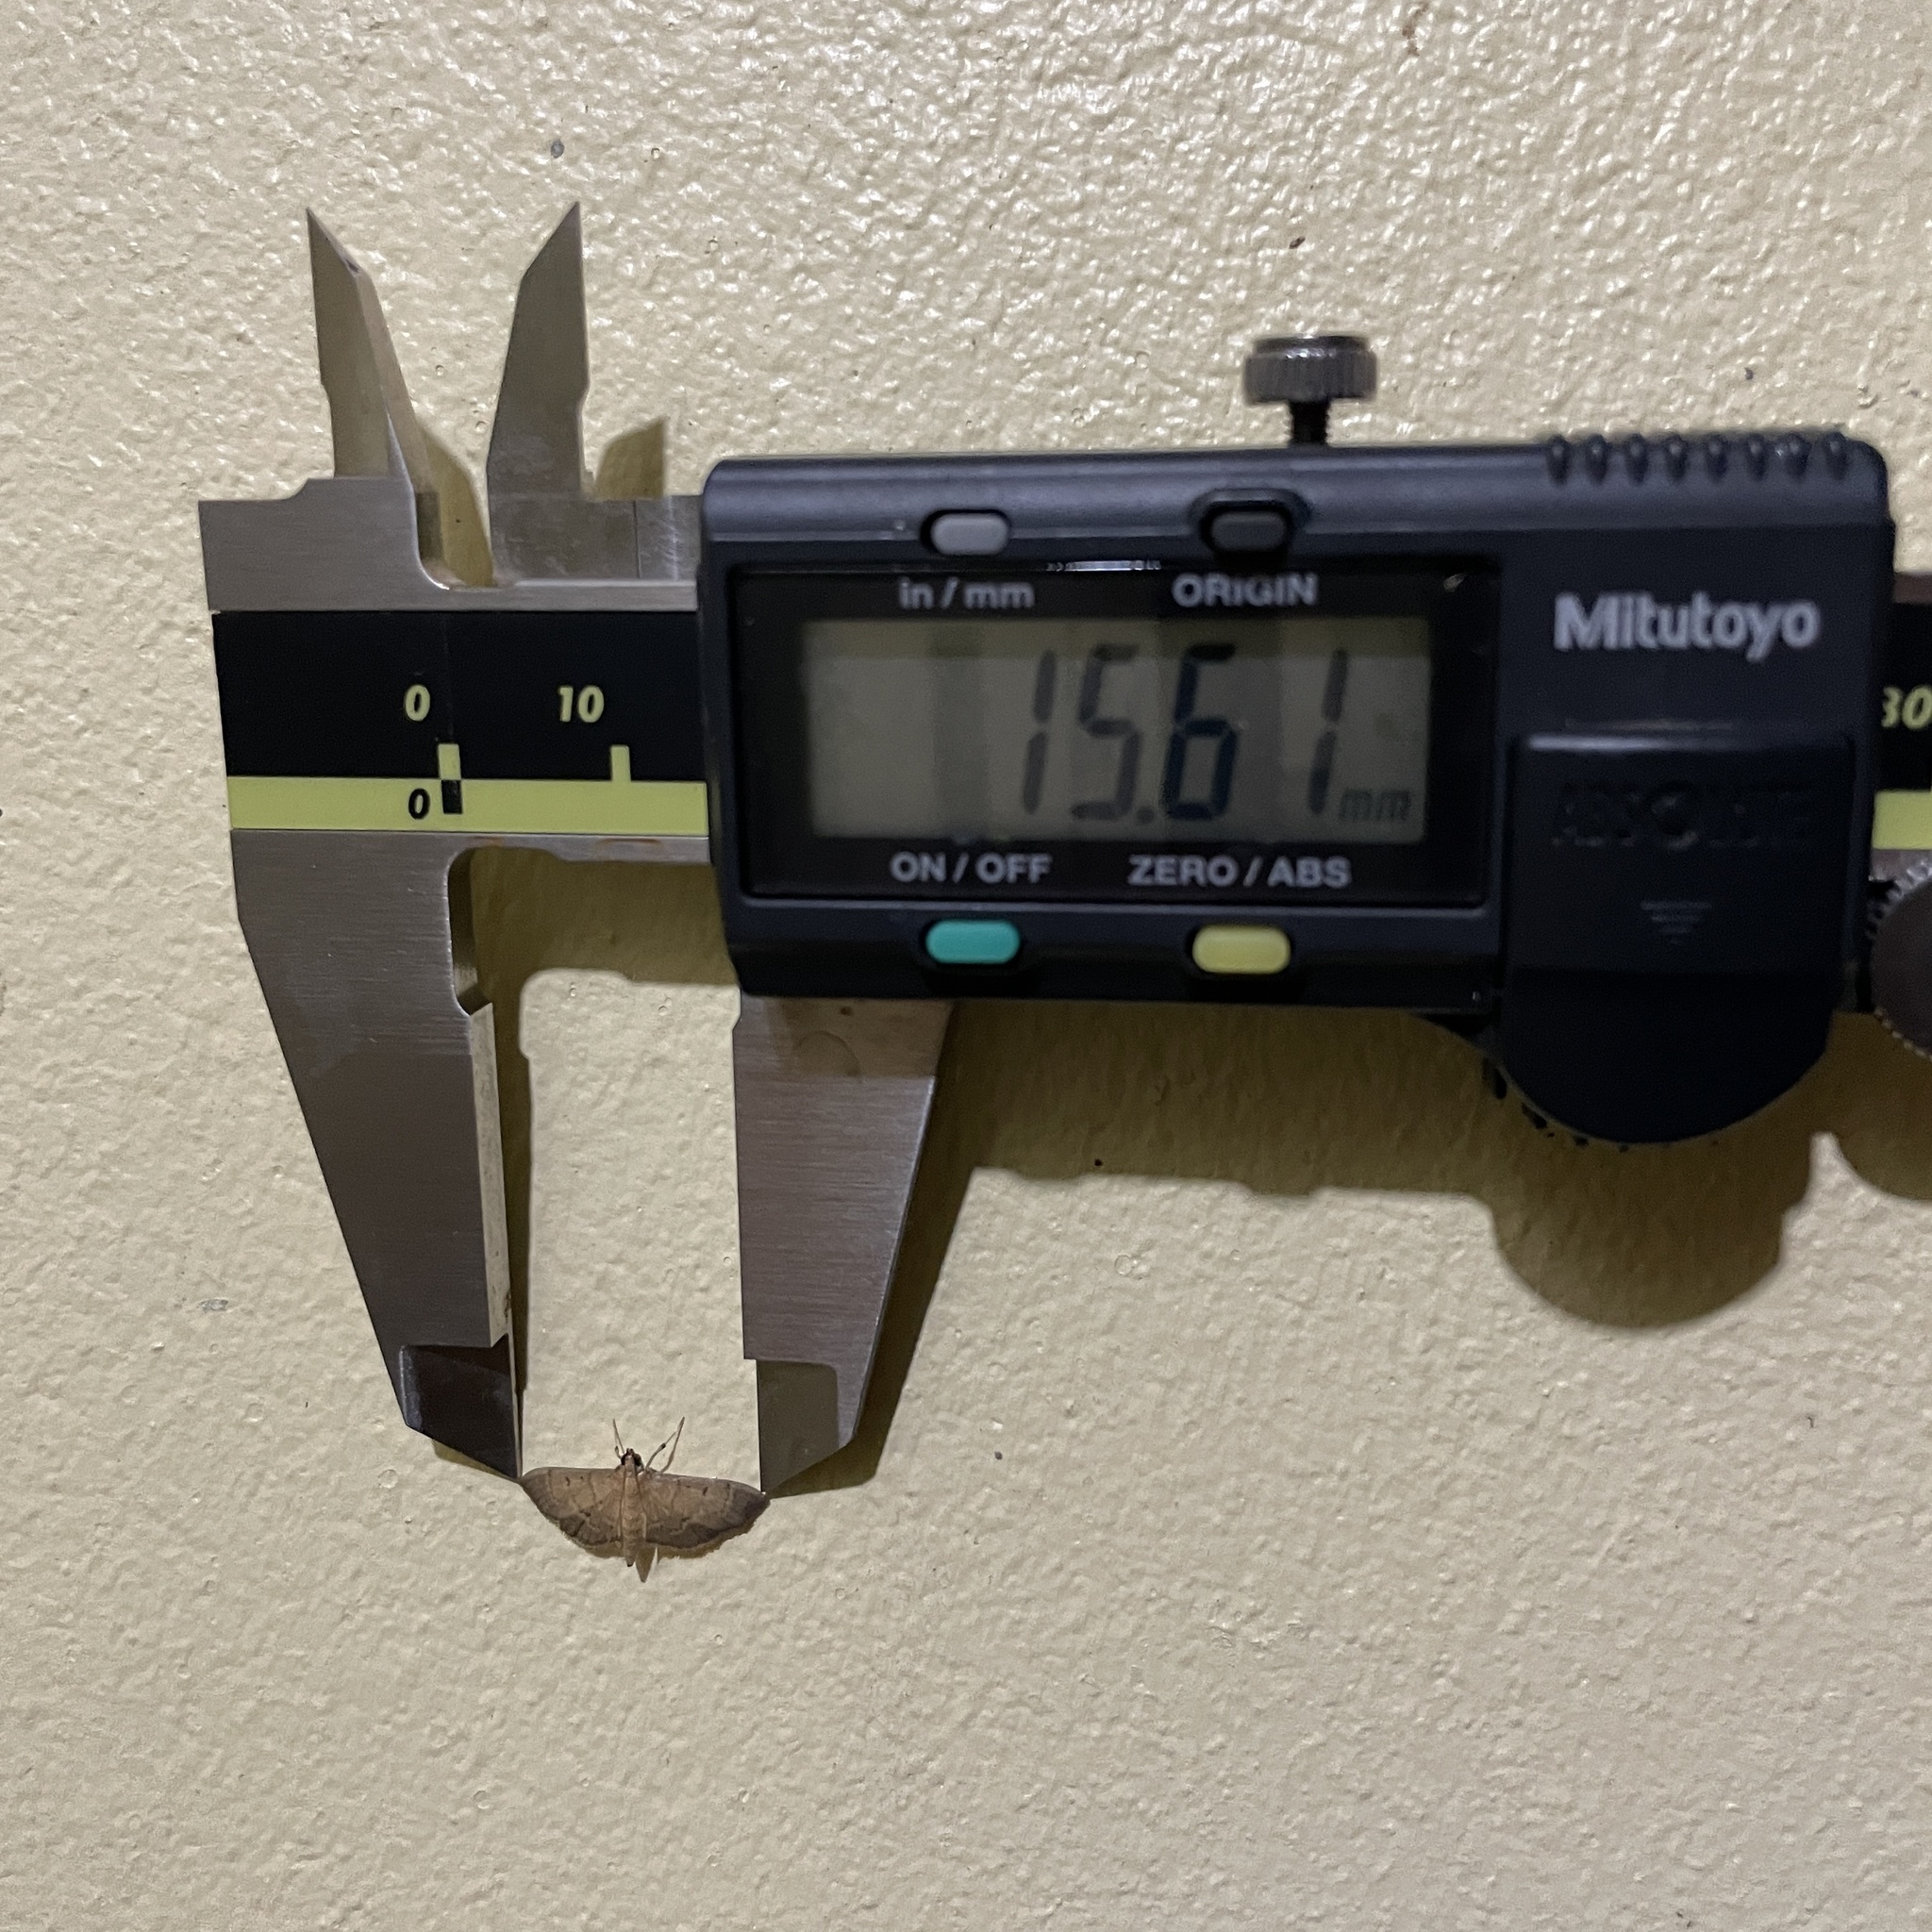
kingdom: Animalia
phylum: Arthropoda
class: Insecta
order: Lepidoptera
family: Crambidae
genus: Psara
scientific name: Psara Rhectocraspeda periusalis
